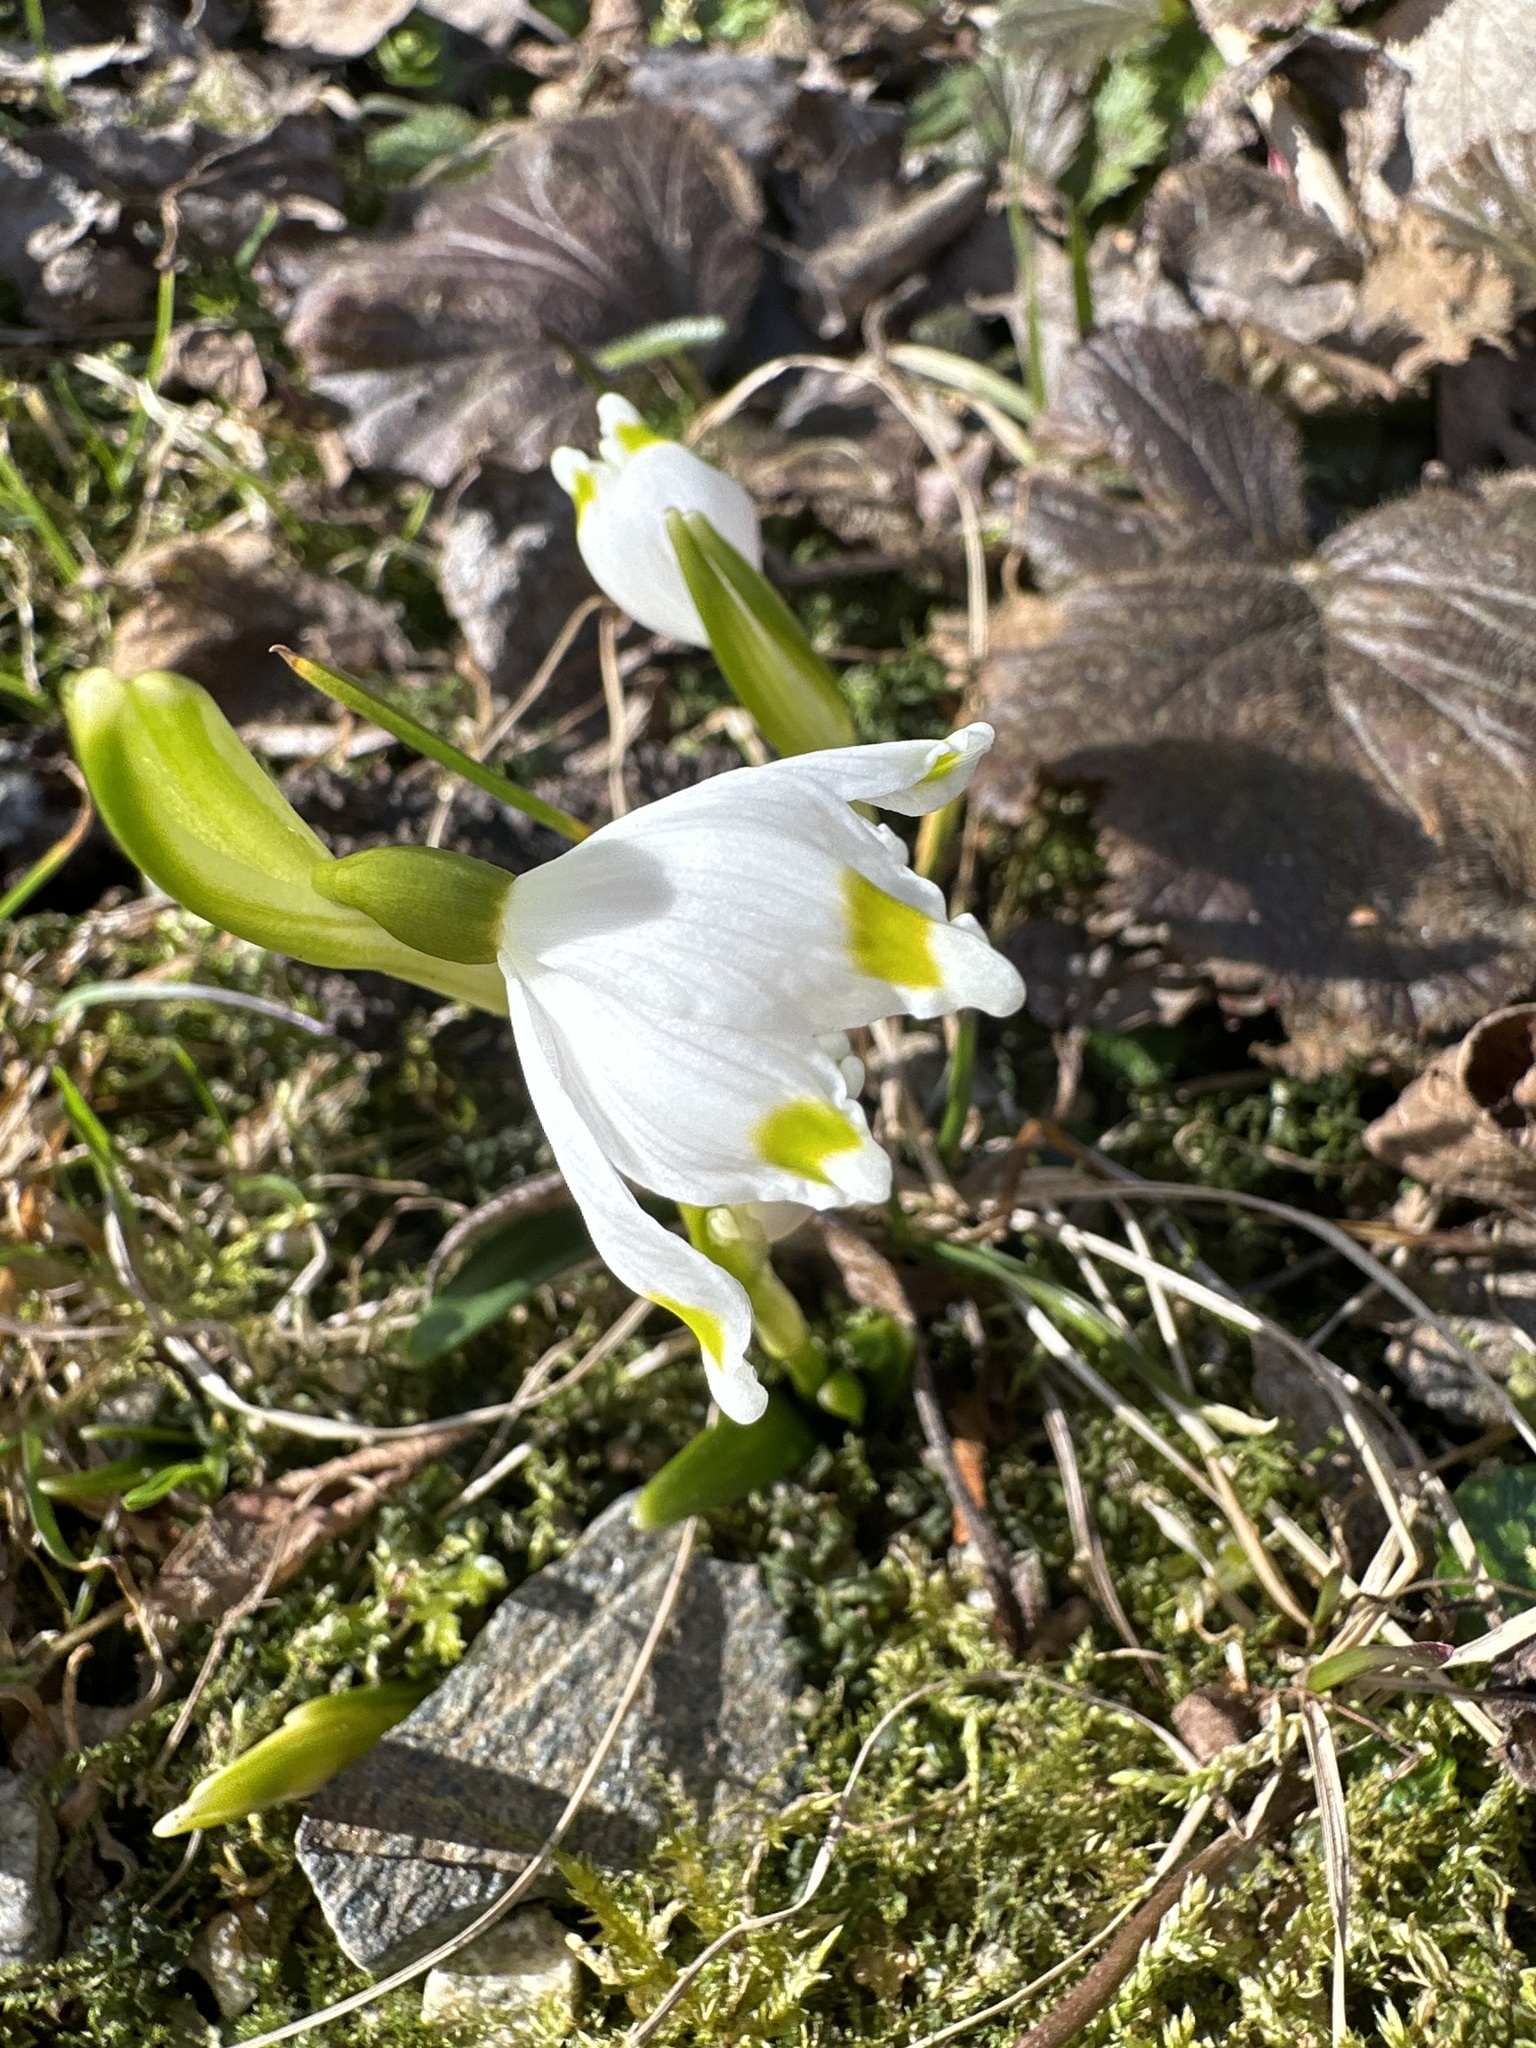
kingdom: Plantae
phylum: Tracheophyta
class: Liliopsida
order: Asparagales
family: Amaryllidaceae
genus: Leucojum
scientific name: Leucojum vernum
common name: Spring snowflake
